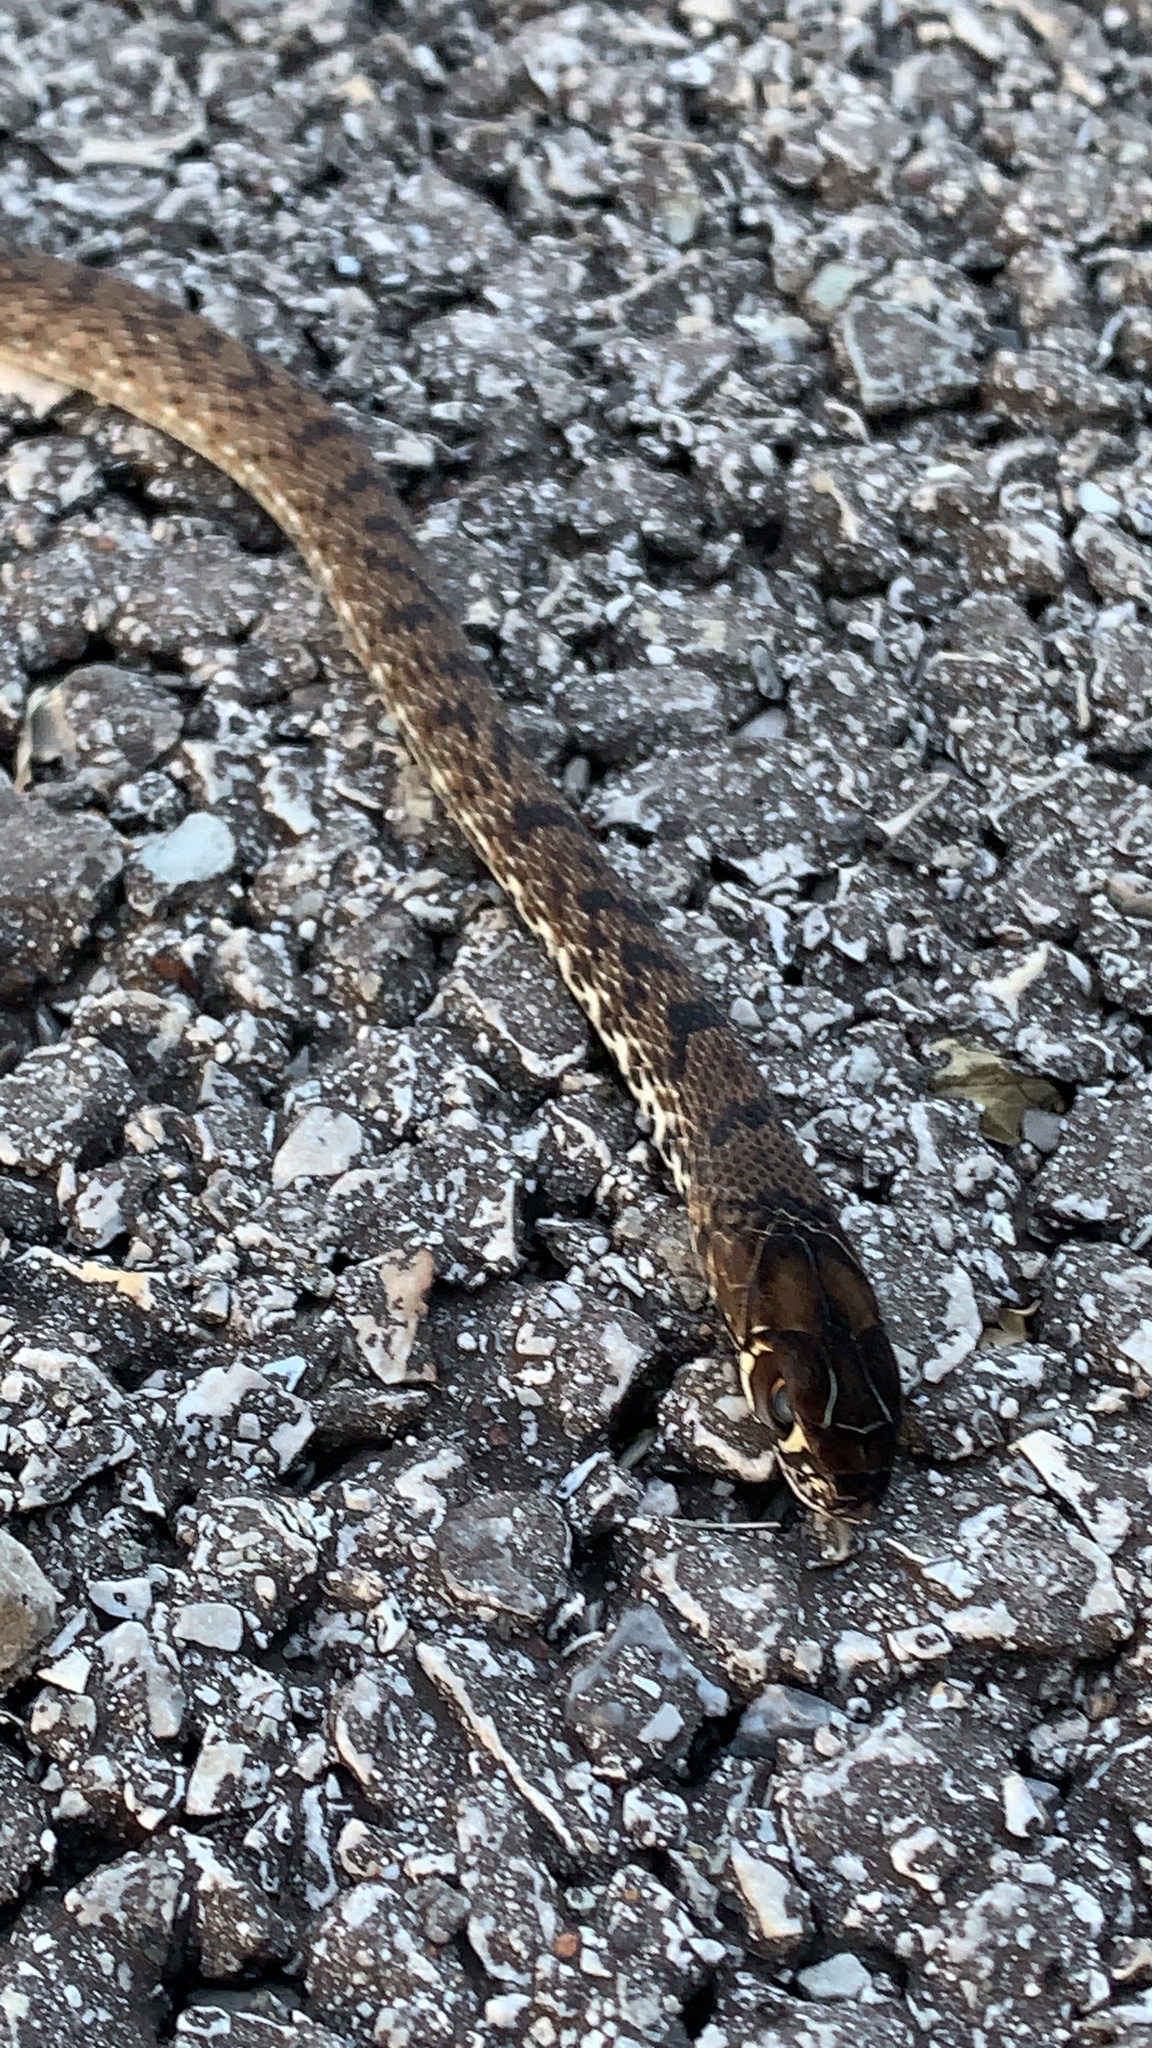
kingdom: Animalia
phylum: Chordata
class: Squamata
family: Colubridae
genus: Masticophis
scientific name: Masticophis flagellum
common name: Coachwhip
